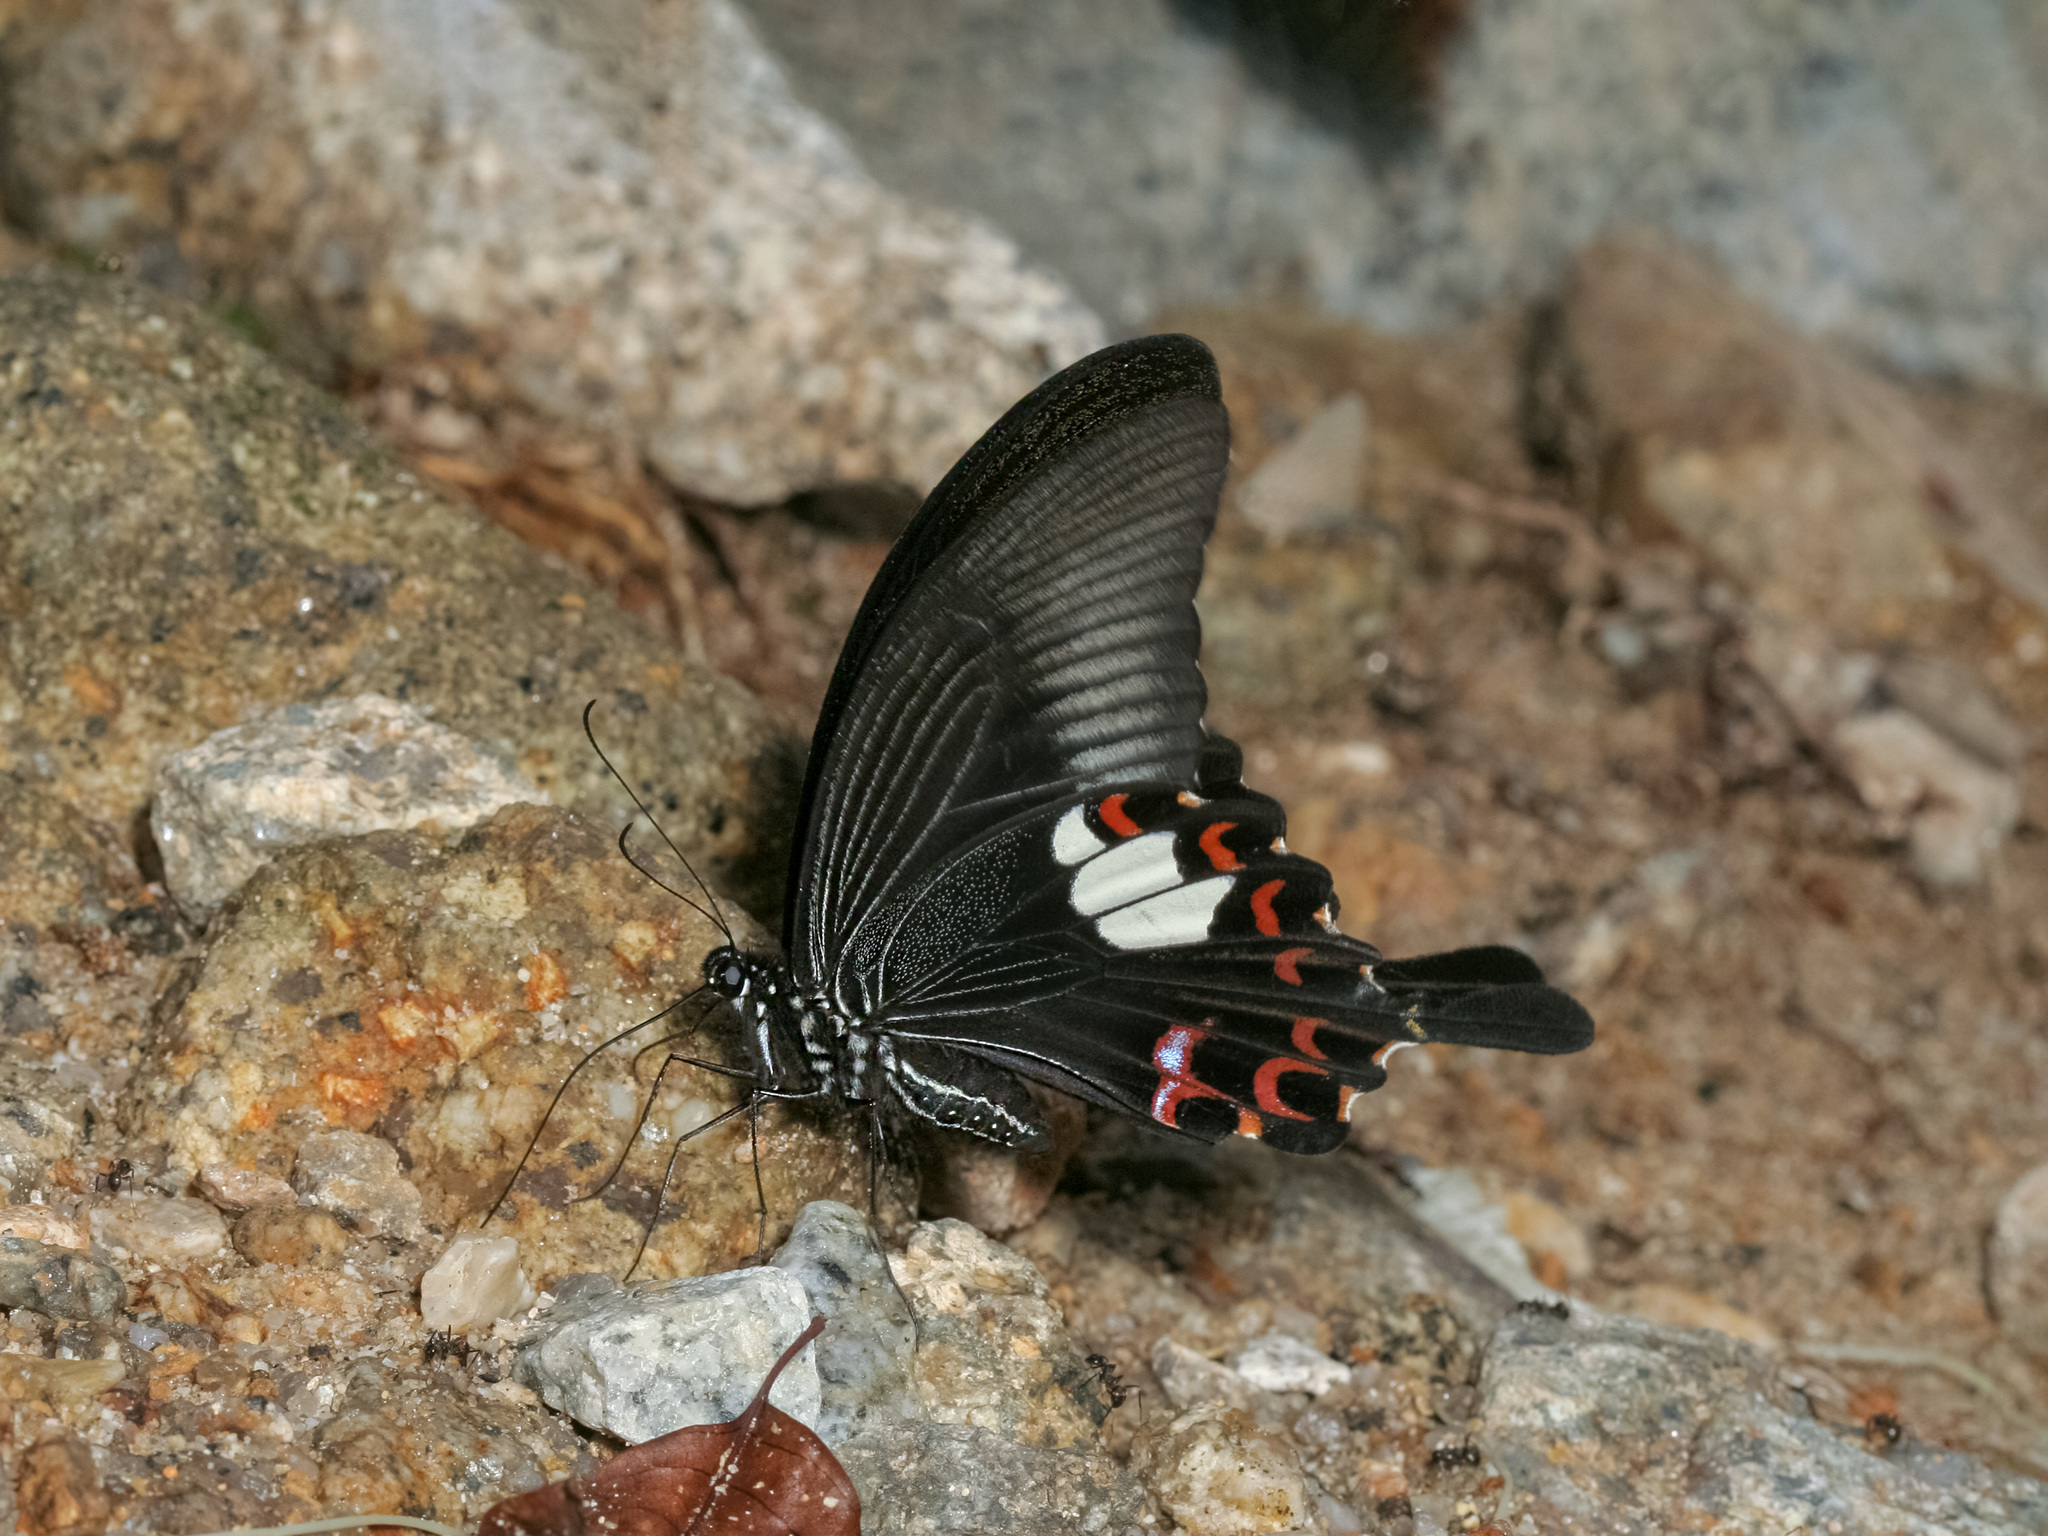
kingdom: Animalia
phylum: Arthropoda
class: Insecta
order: Lepidoptera
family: Papilionidae
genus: Papilio
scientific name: Papilio helenus
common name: Red helen
